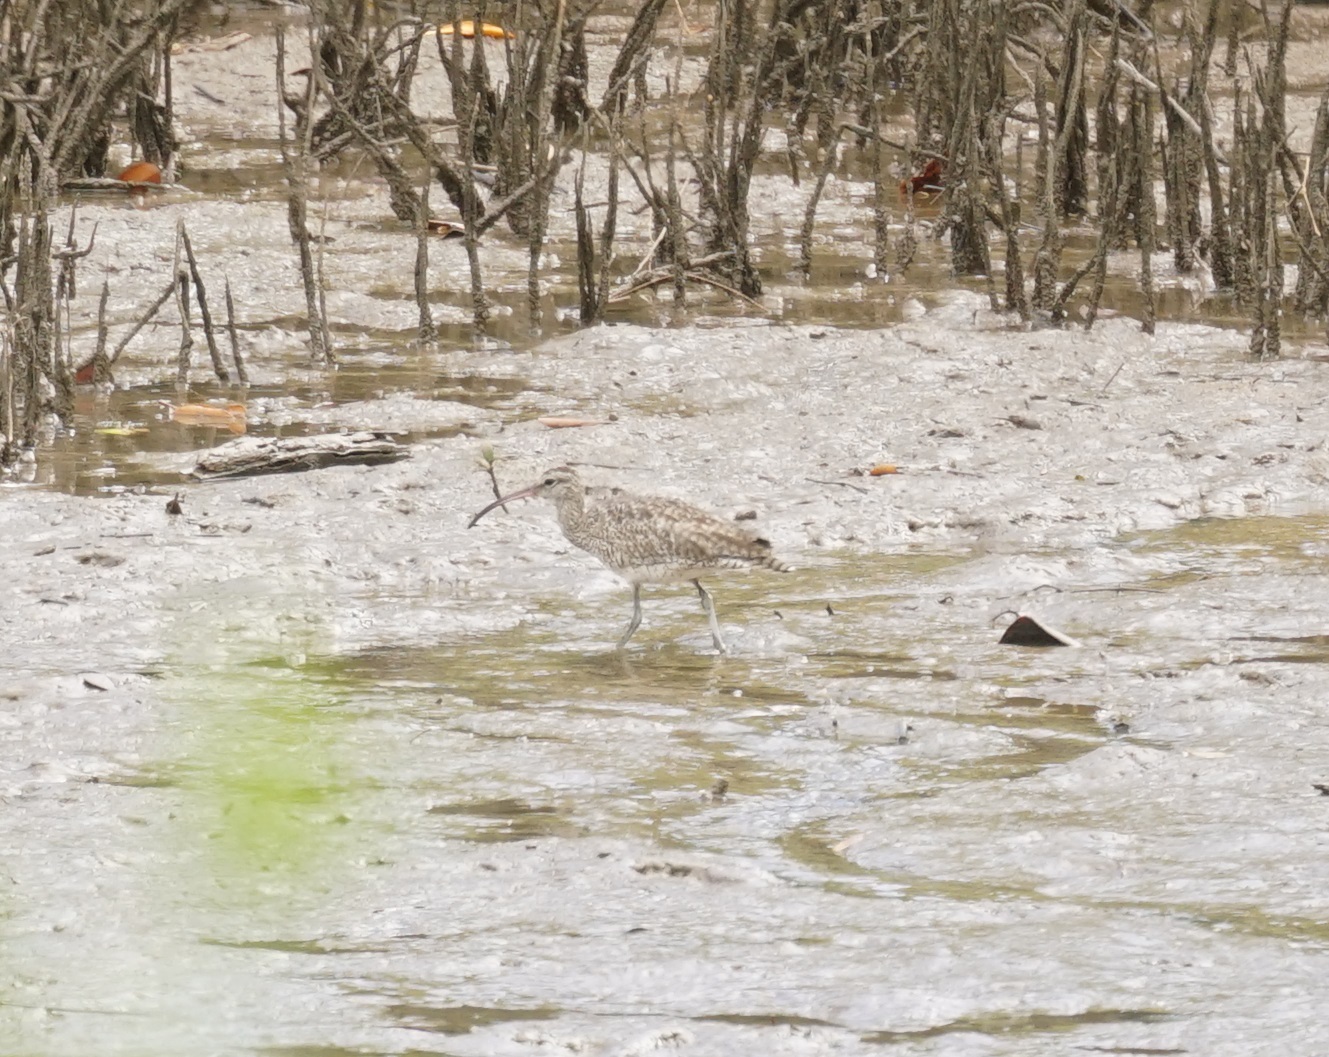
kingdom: Animalia
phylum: Chordata
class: Aves
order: Charadriiformes
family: Scolopacidae
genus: Numenius
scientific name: Numenius phaeopus
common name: Whimbrel
